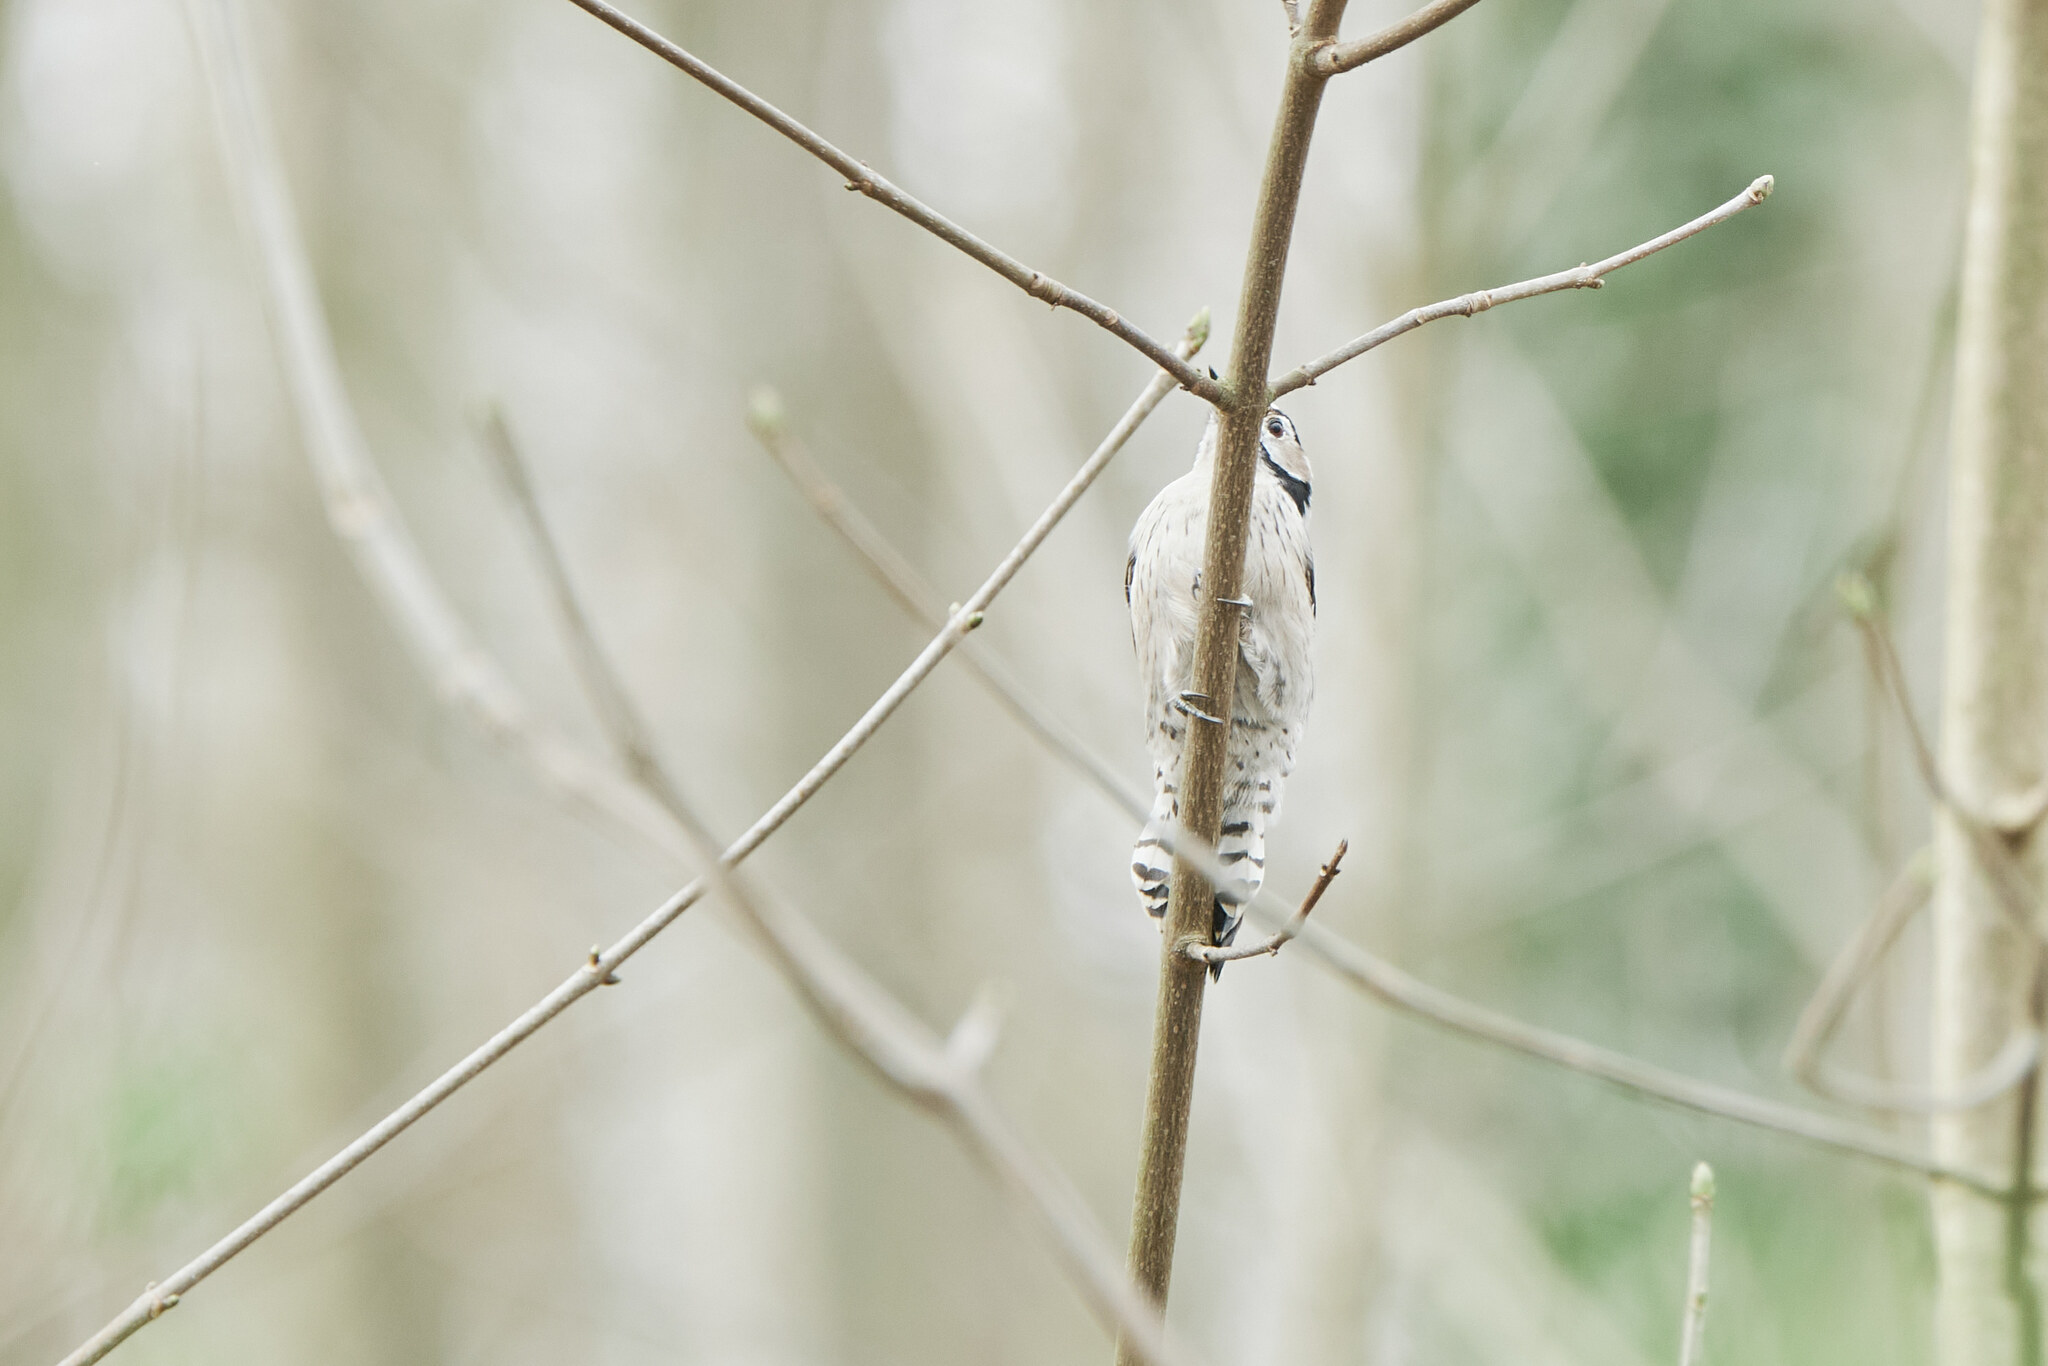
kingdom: Animalia
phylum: Chordata
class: Aves
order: Piciformes
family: Picidae
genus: Dryobates
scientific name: Dryobates minor
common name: Lesser spotted woodpecker
